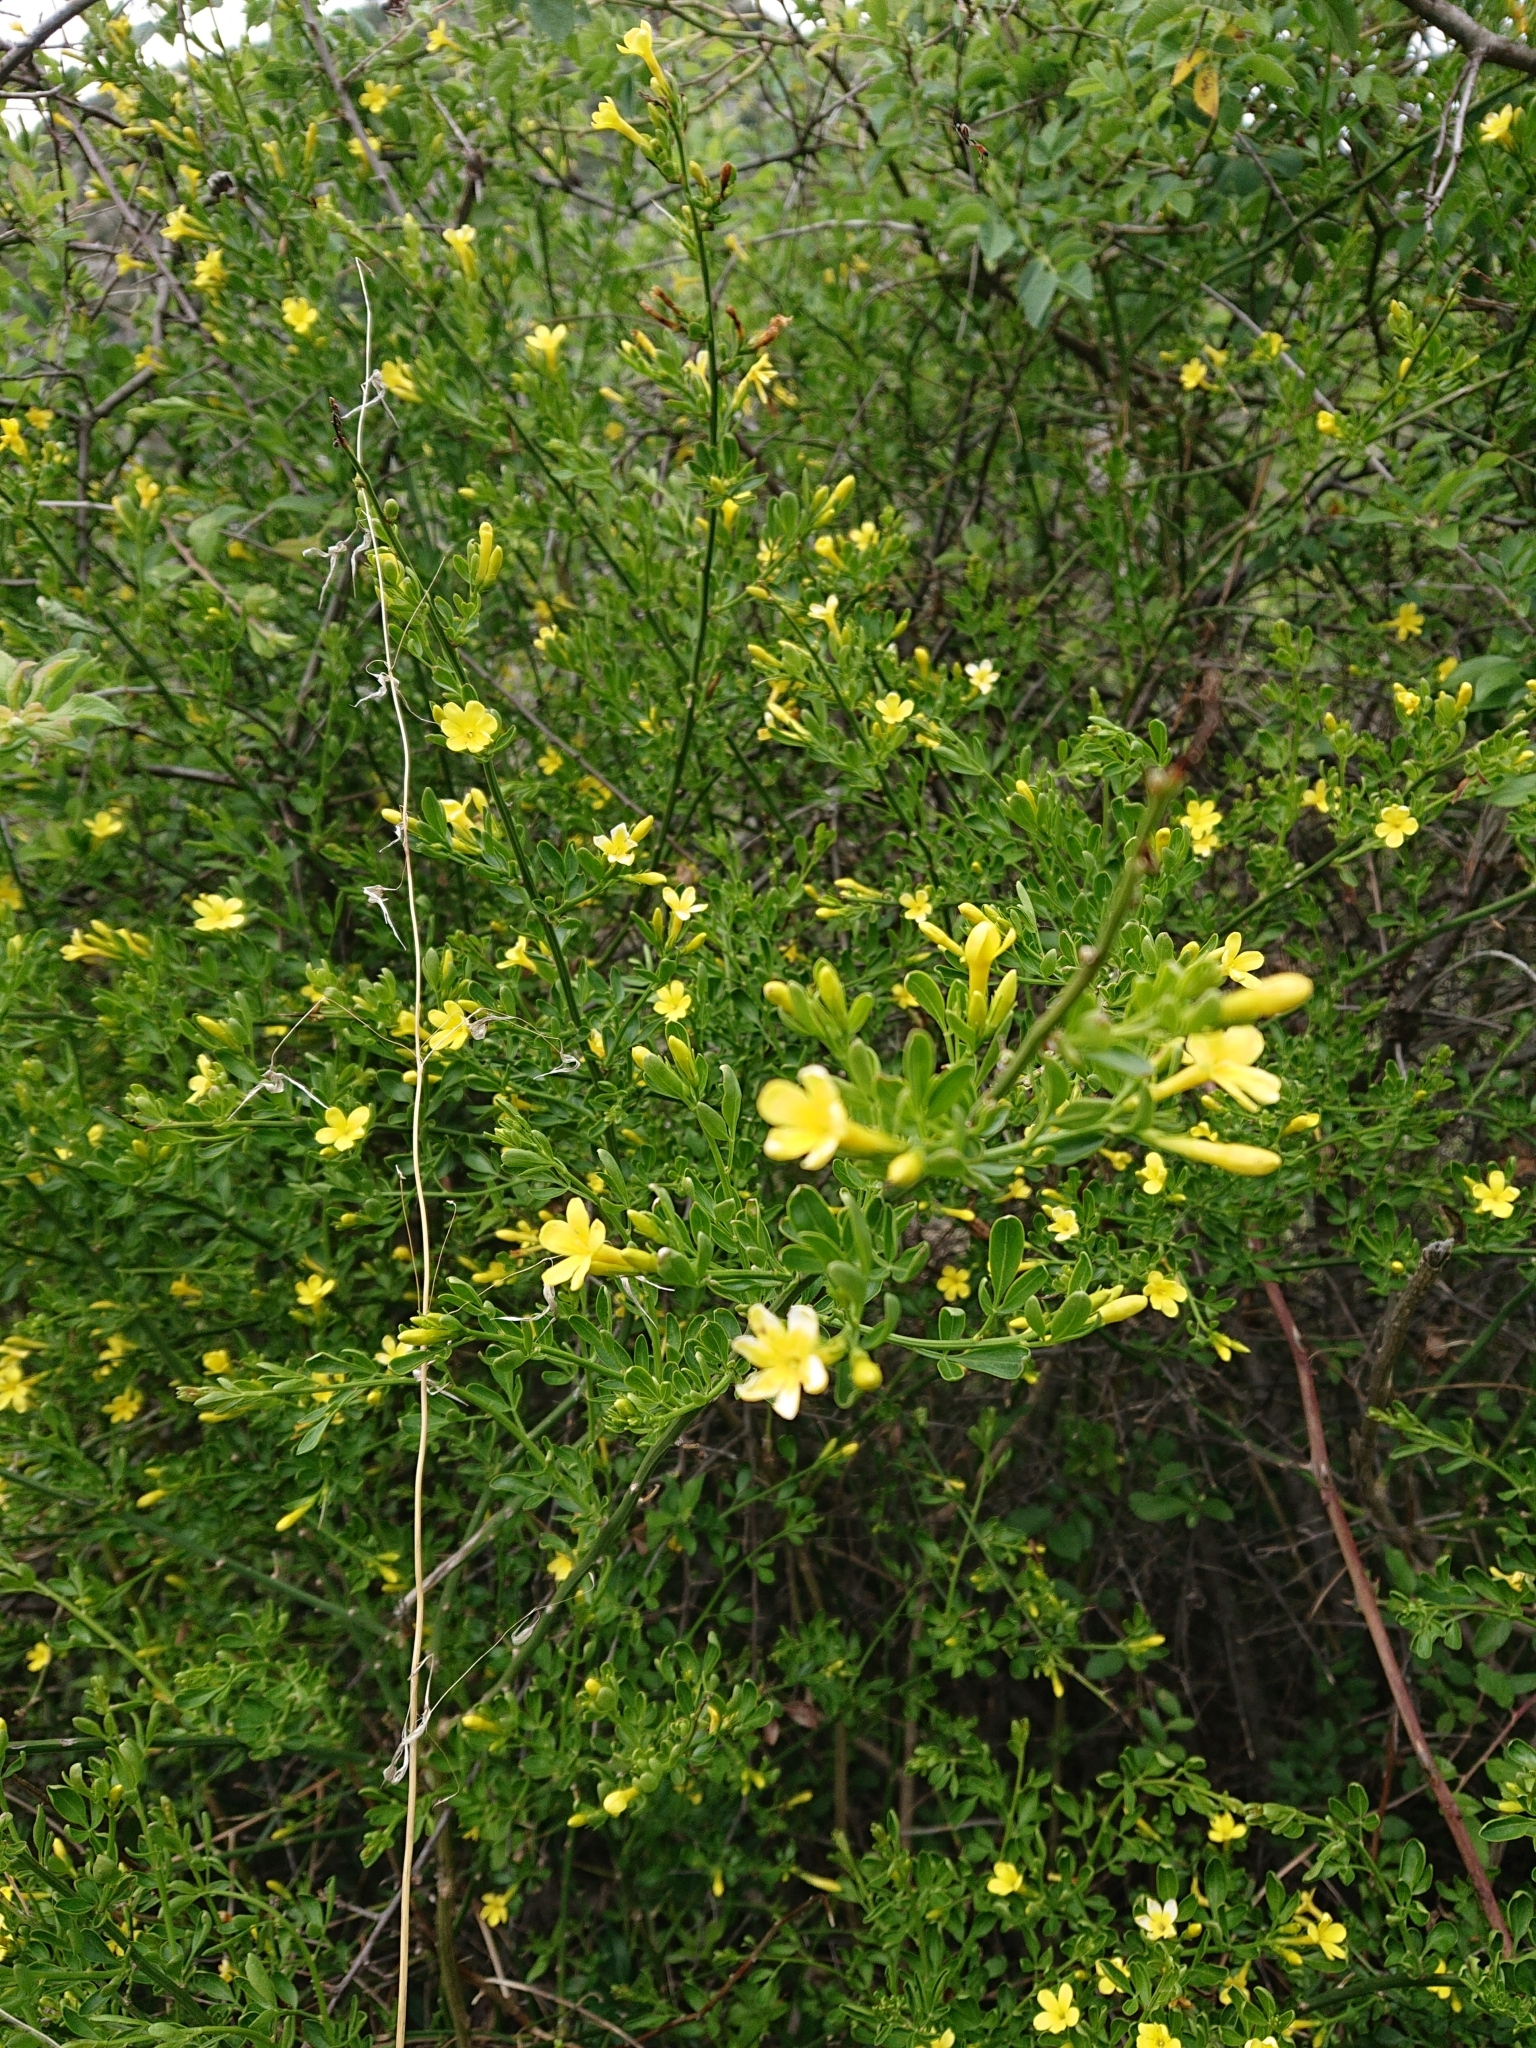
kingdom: Plantae
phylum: Tracheophyta
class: Magnoliopsida
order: Lamiales
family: Oleaceae
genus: Chrysojasminum
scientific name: Chrysojasminum fruticans
